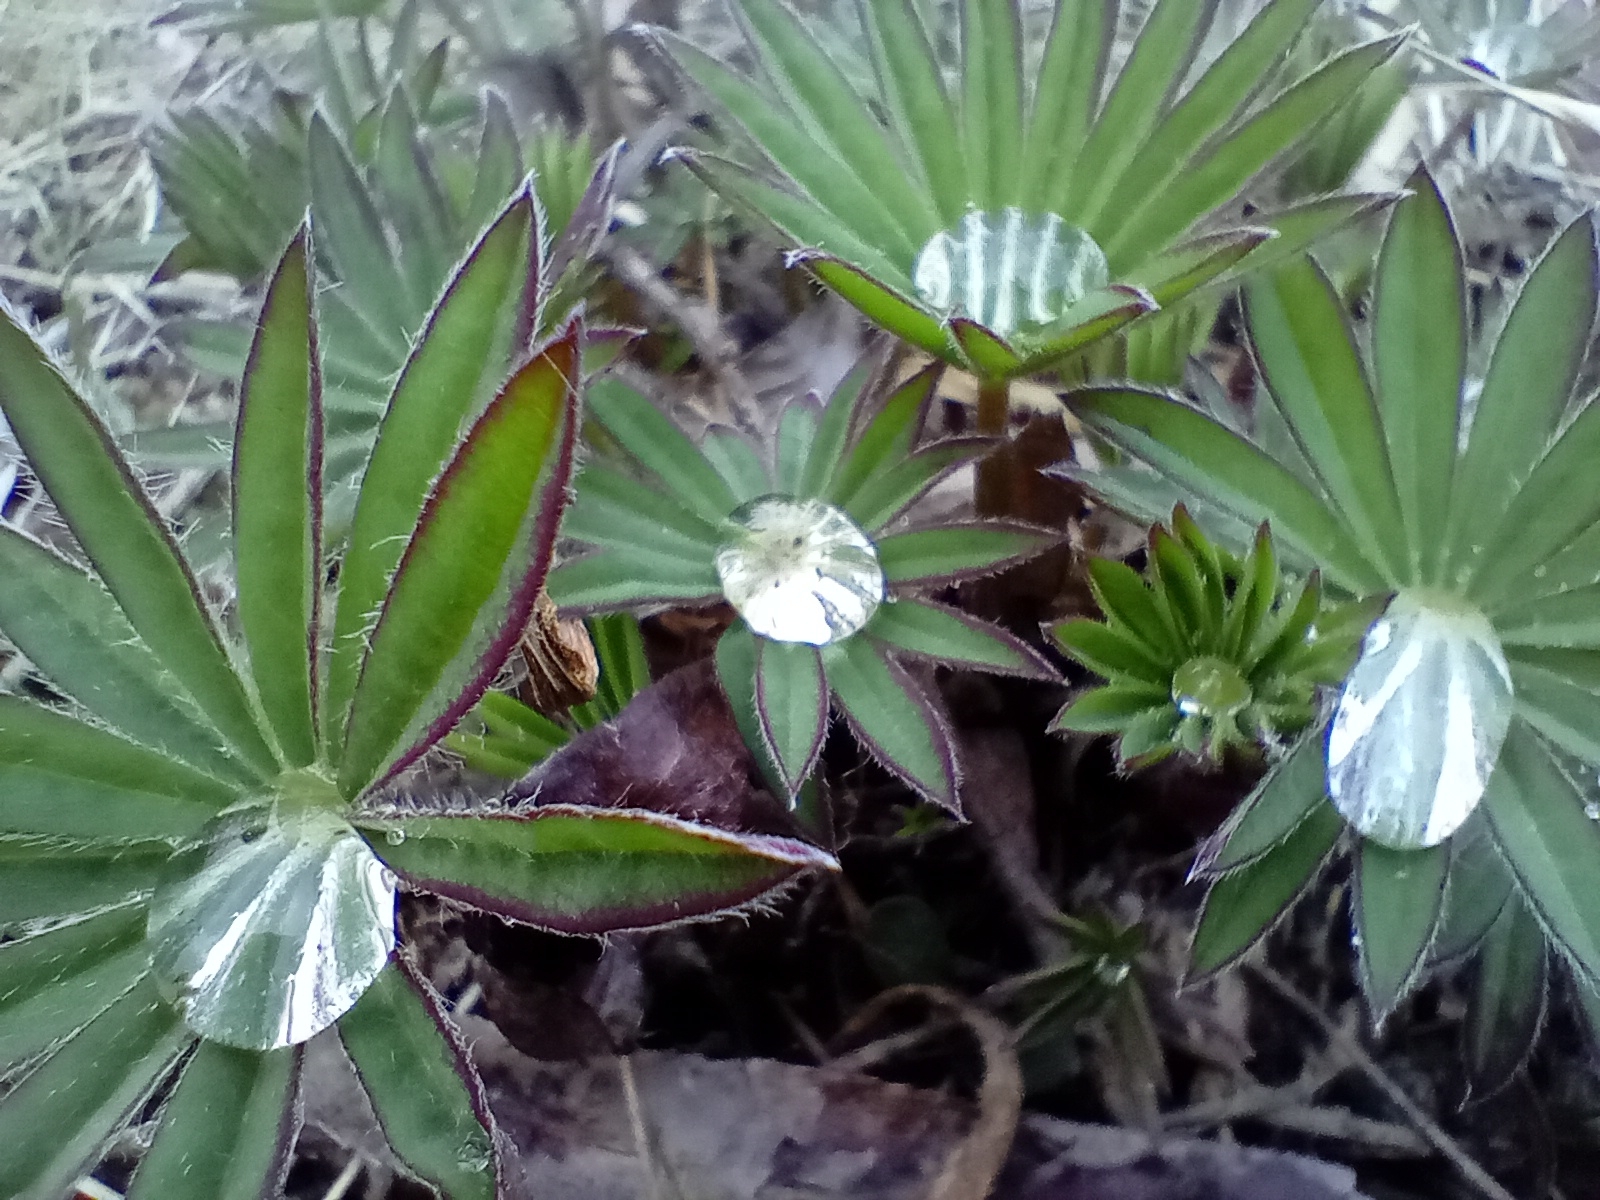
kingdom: Plantae
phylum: Tracheophyta
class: Magnoliopsida
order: Fabales
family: Fabaceae
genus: Lupinus
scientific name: Lupinus polyphyllus
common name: Garden lupin
